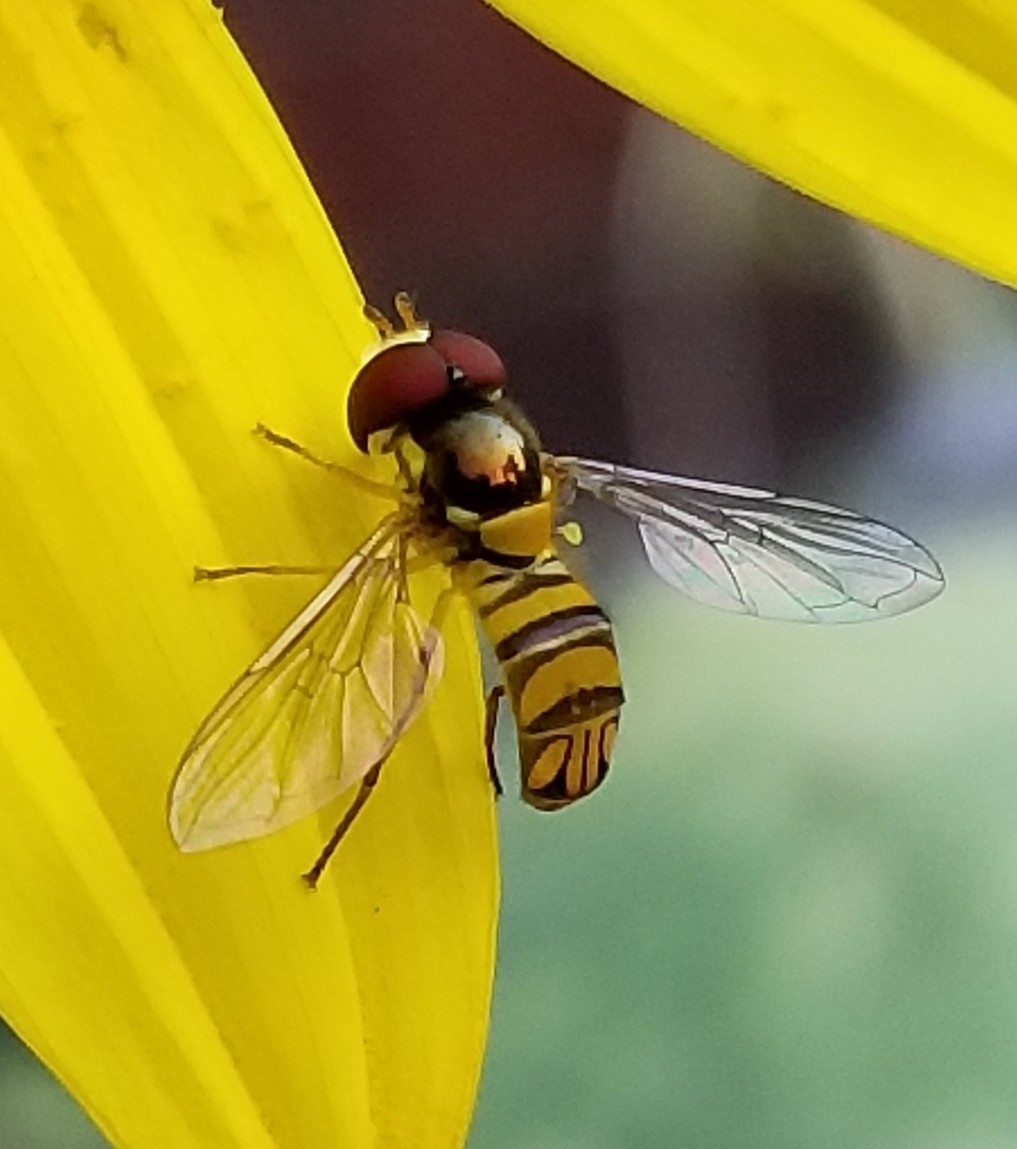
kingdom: Animalia
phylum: Arthropoda
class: Insecta
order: Diptera
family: Syrphidae
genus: Allograpta
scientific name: Allograpta obliqua
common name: Common oblique syrphid
